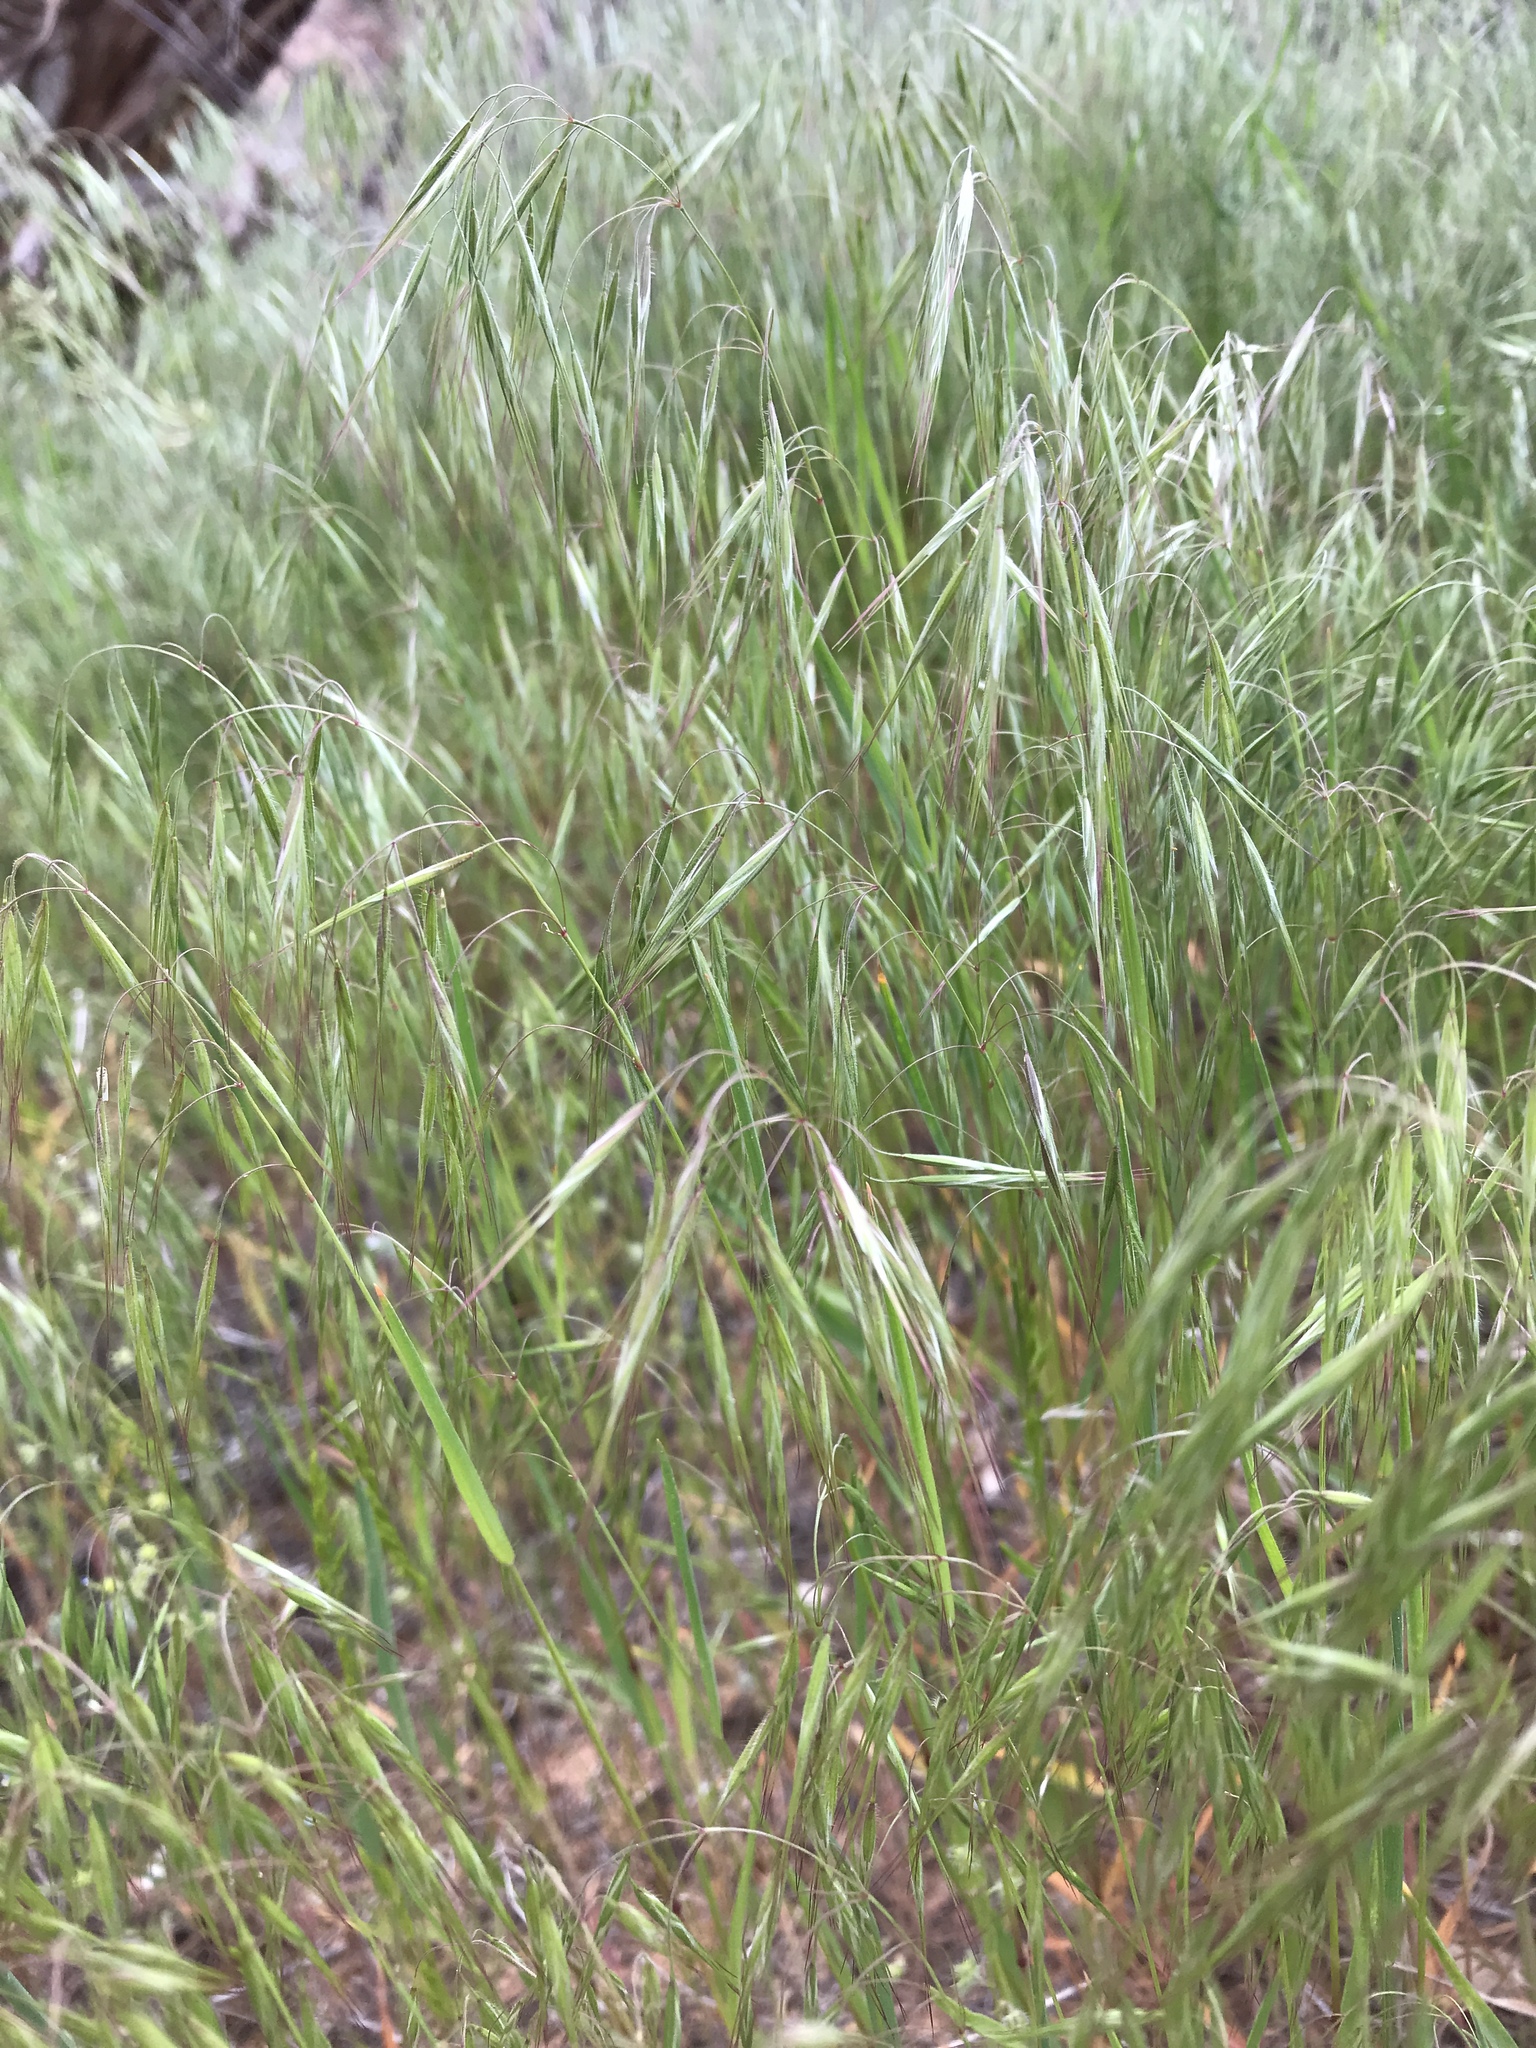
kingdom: Plantae
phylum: Tracheophyta
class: Liliopsida
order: Poales
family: Poaceae
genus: Bromus
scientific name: Bromus tectorum
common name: Cheatgrass
